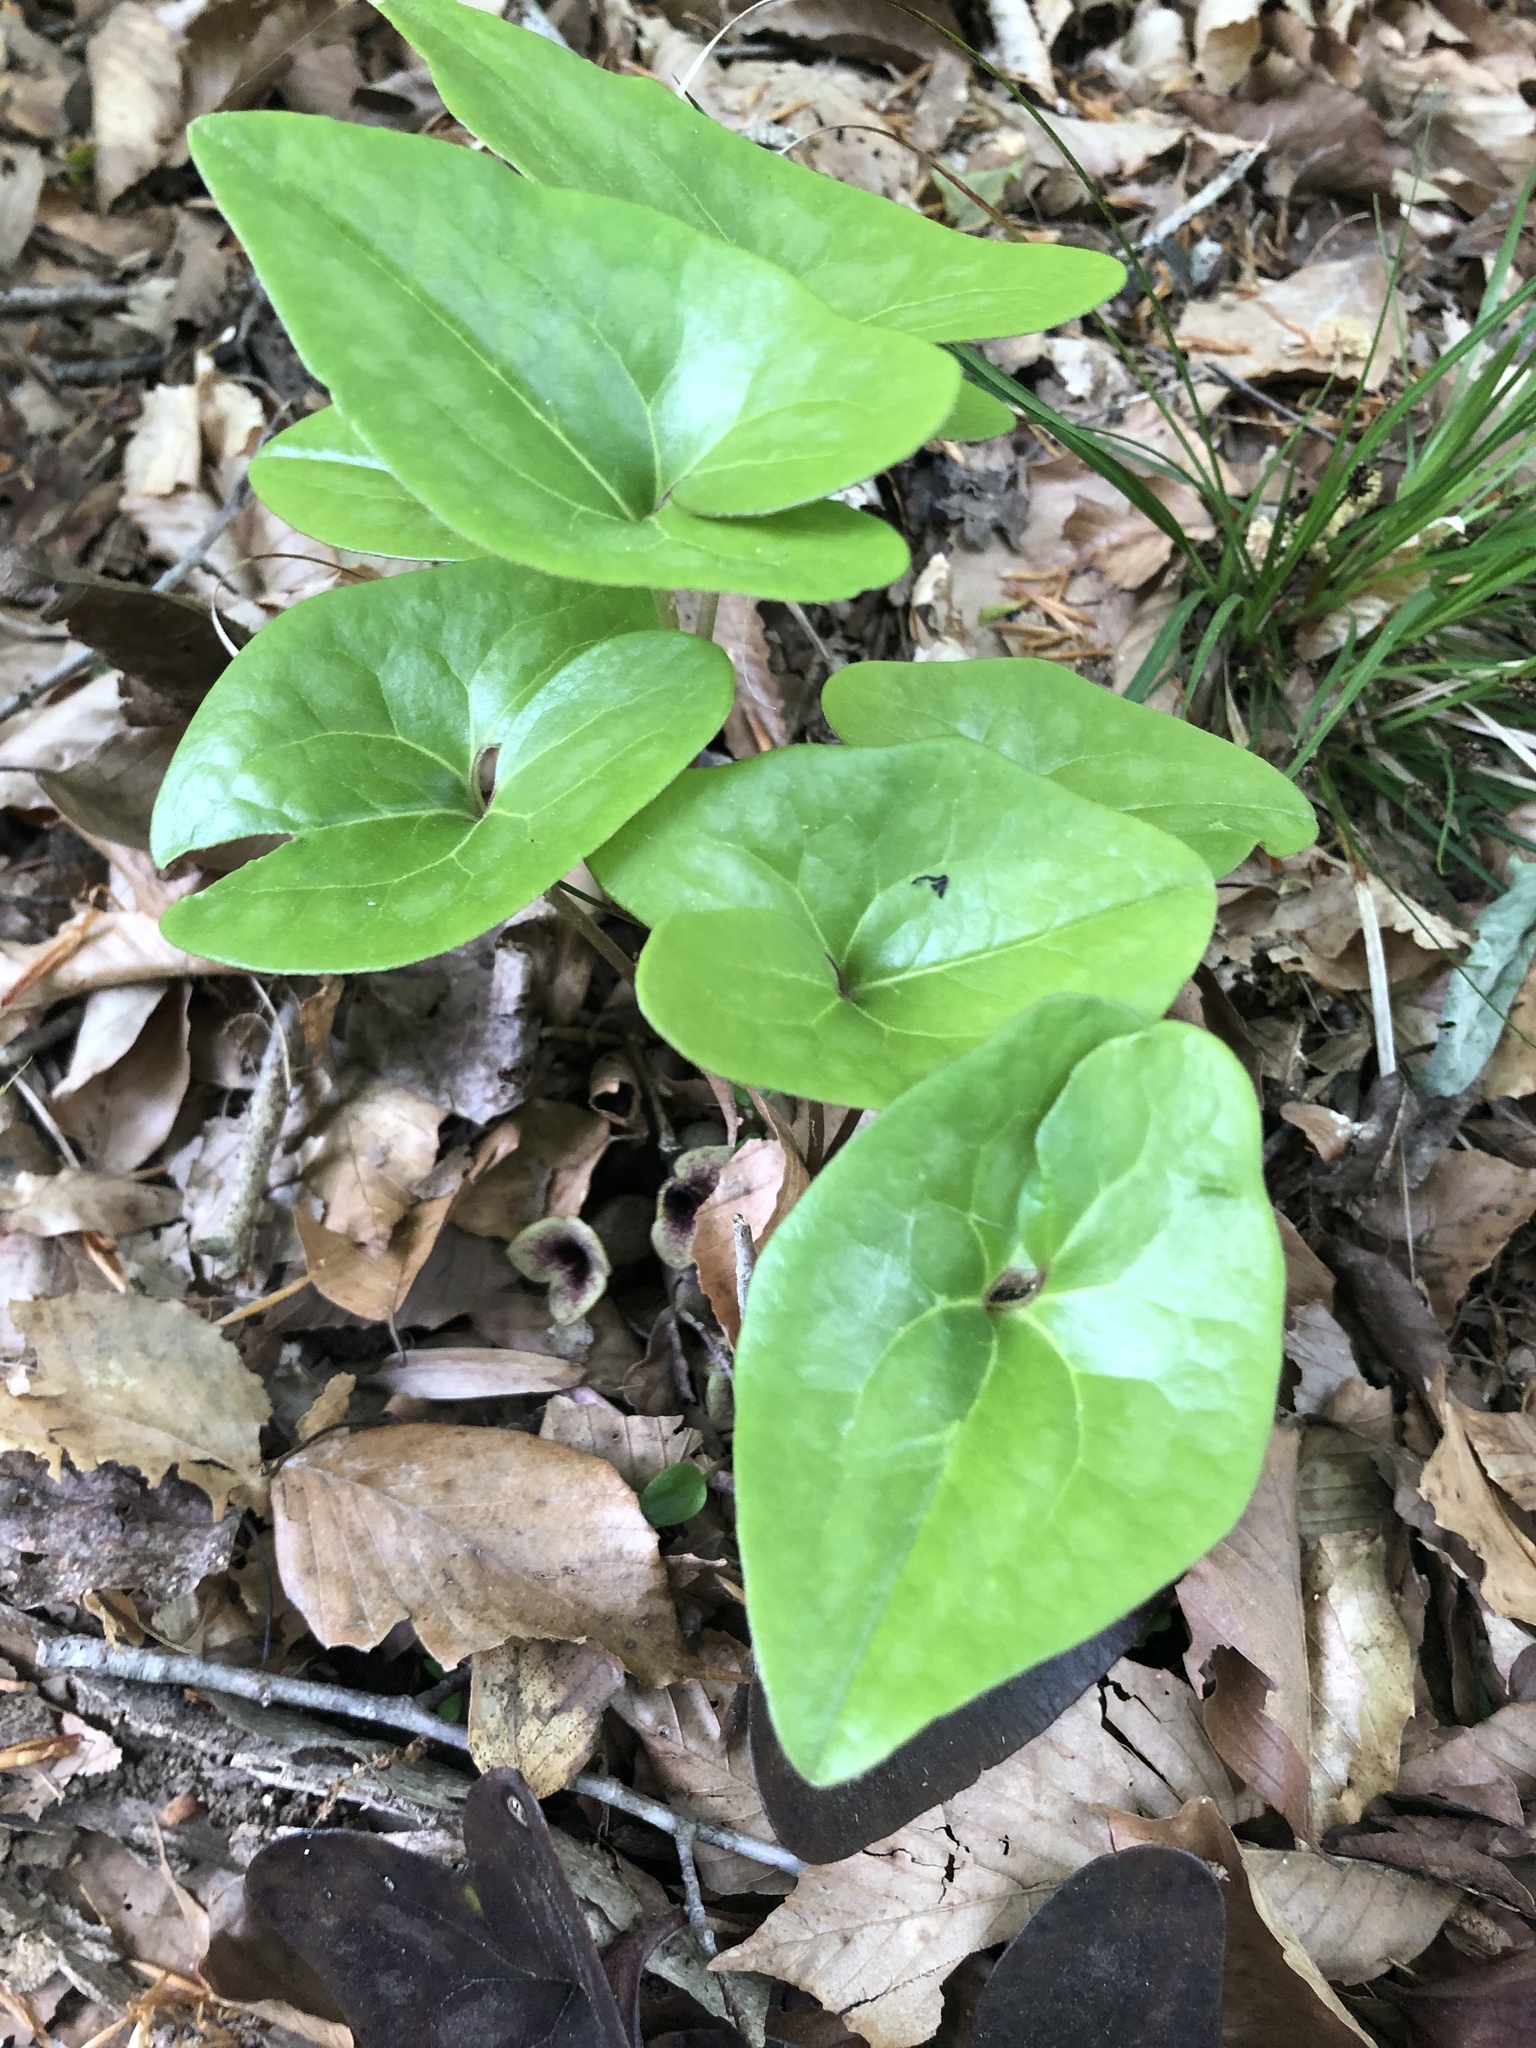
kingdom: Plantae
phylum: Tracheophyta
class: Magnoliopsida
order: Piperales
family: Aristolochiaceae
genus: Hexastylis
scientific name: Hexastylis arifolia
